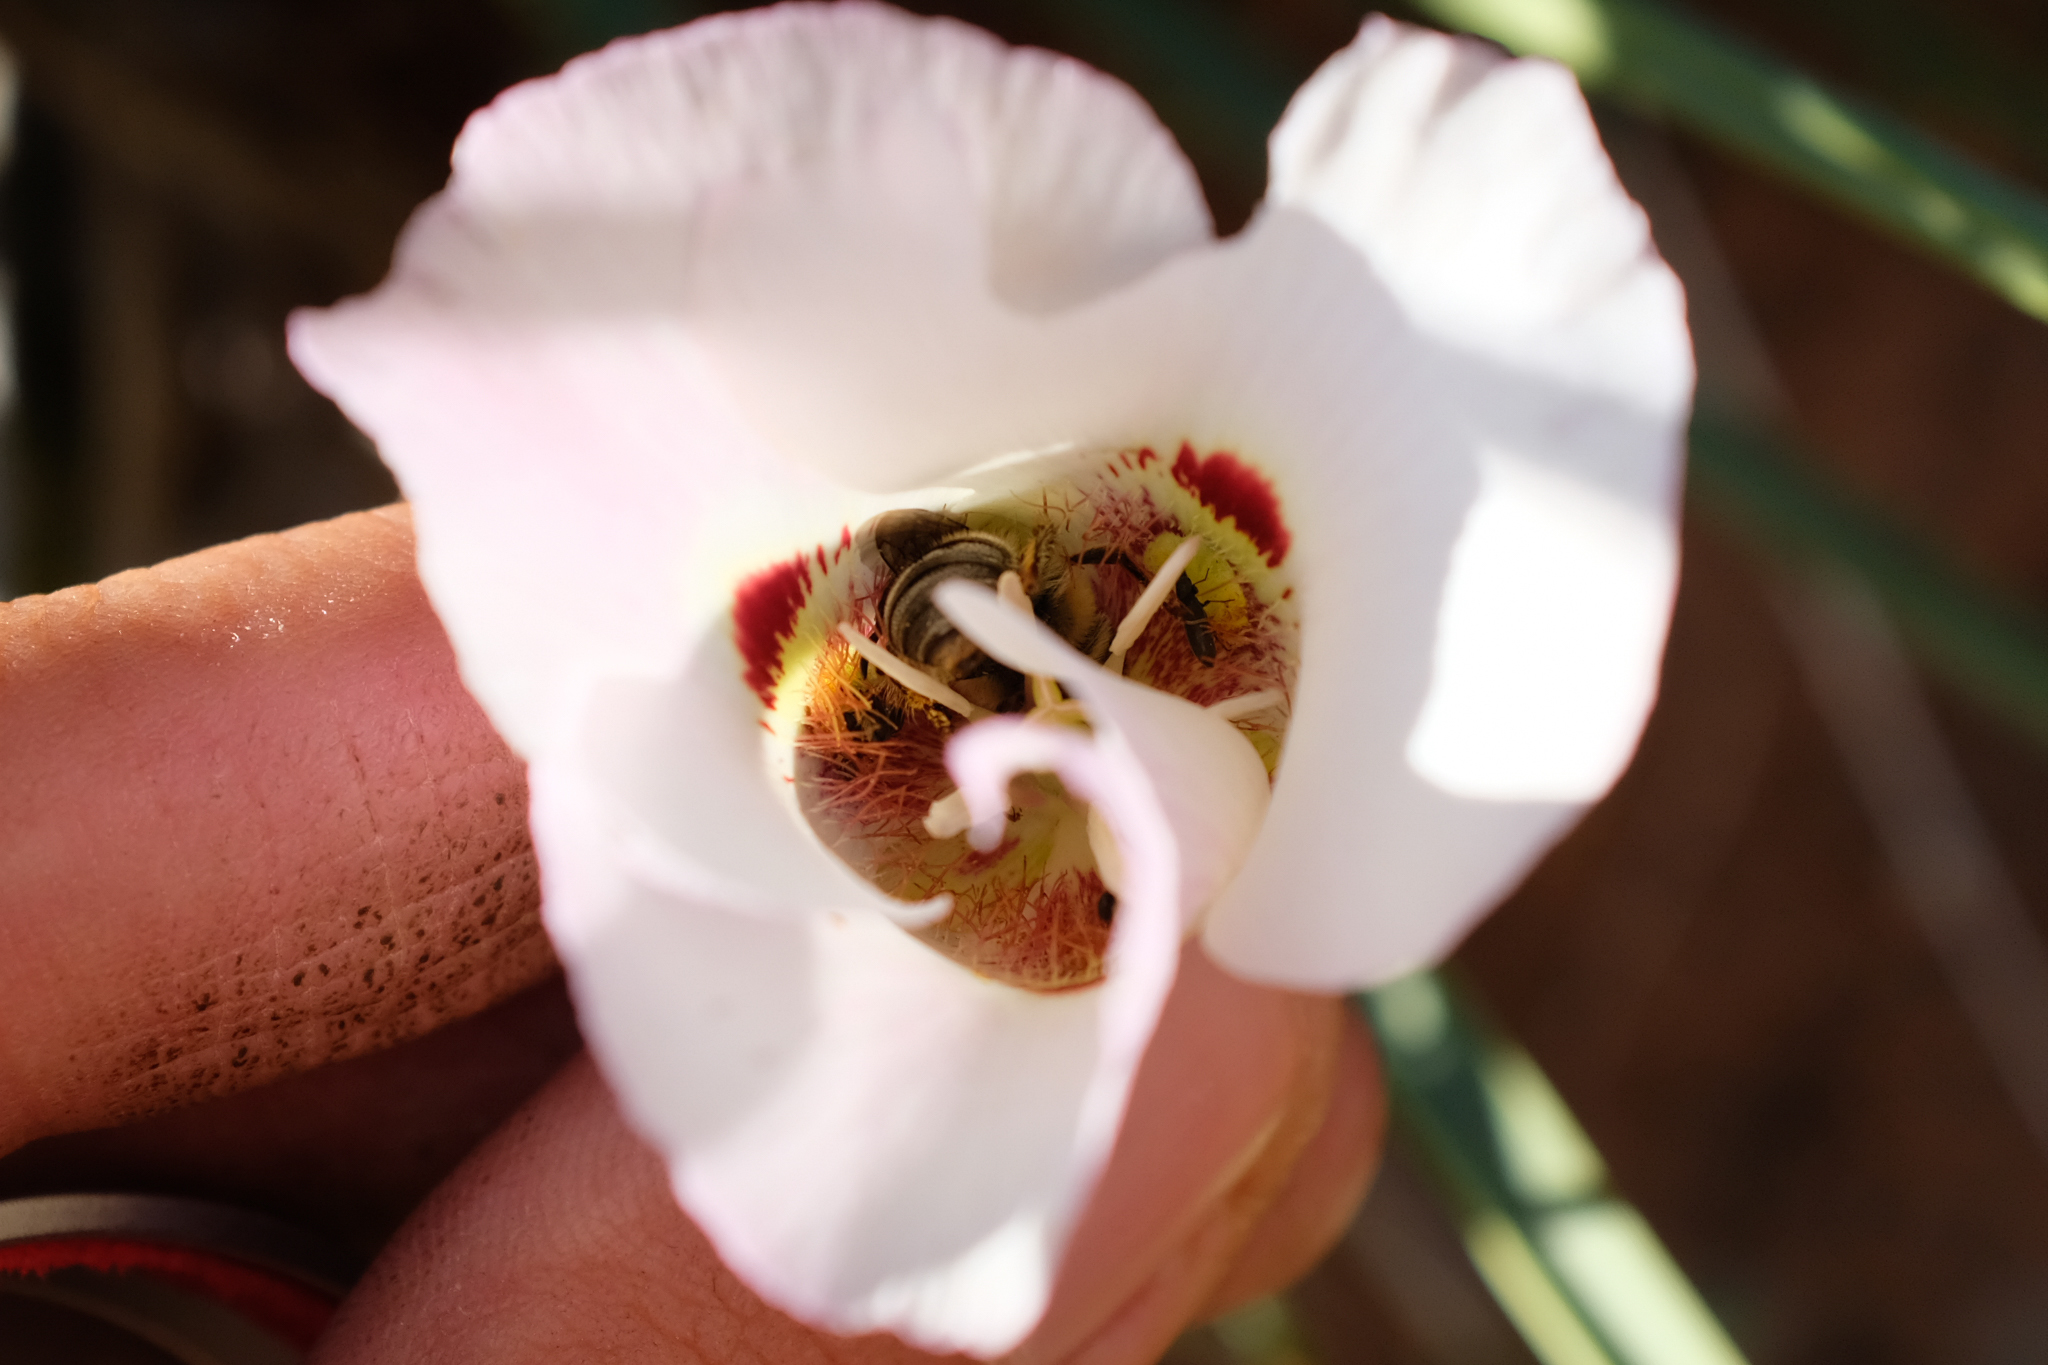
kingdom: Plantae
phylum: Tracheophyta
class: Liliopsida
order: Liliales
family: Liliaceae
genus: Calochortus
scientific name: Calochortus venustus
